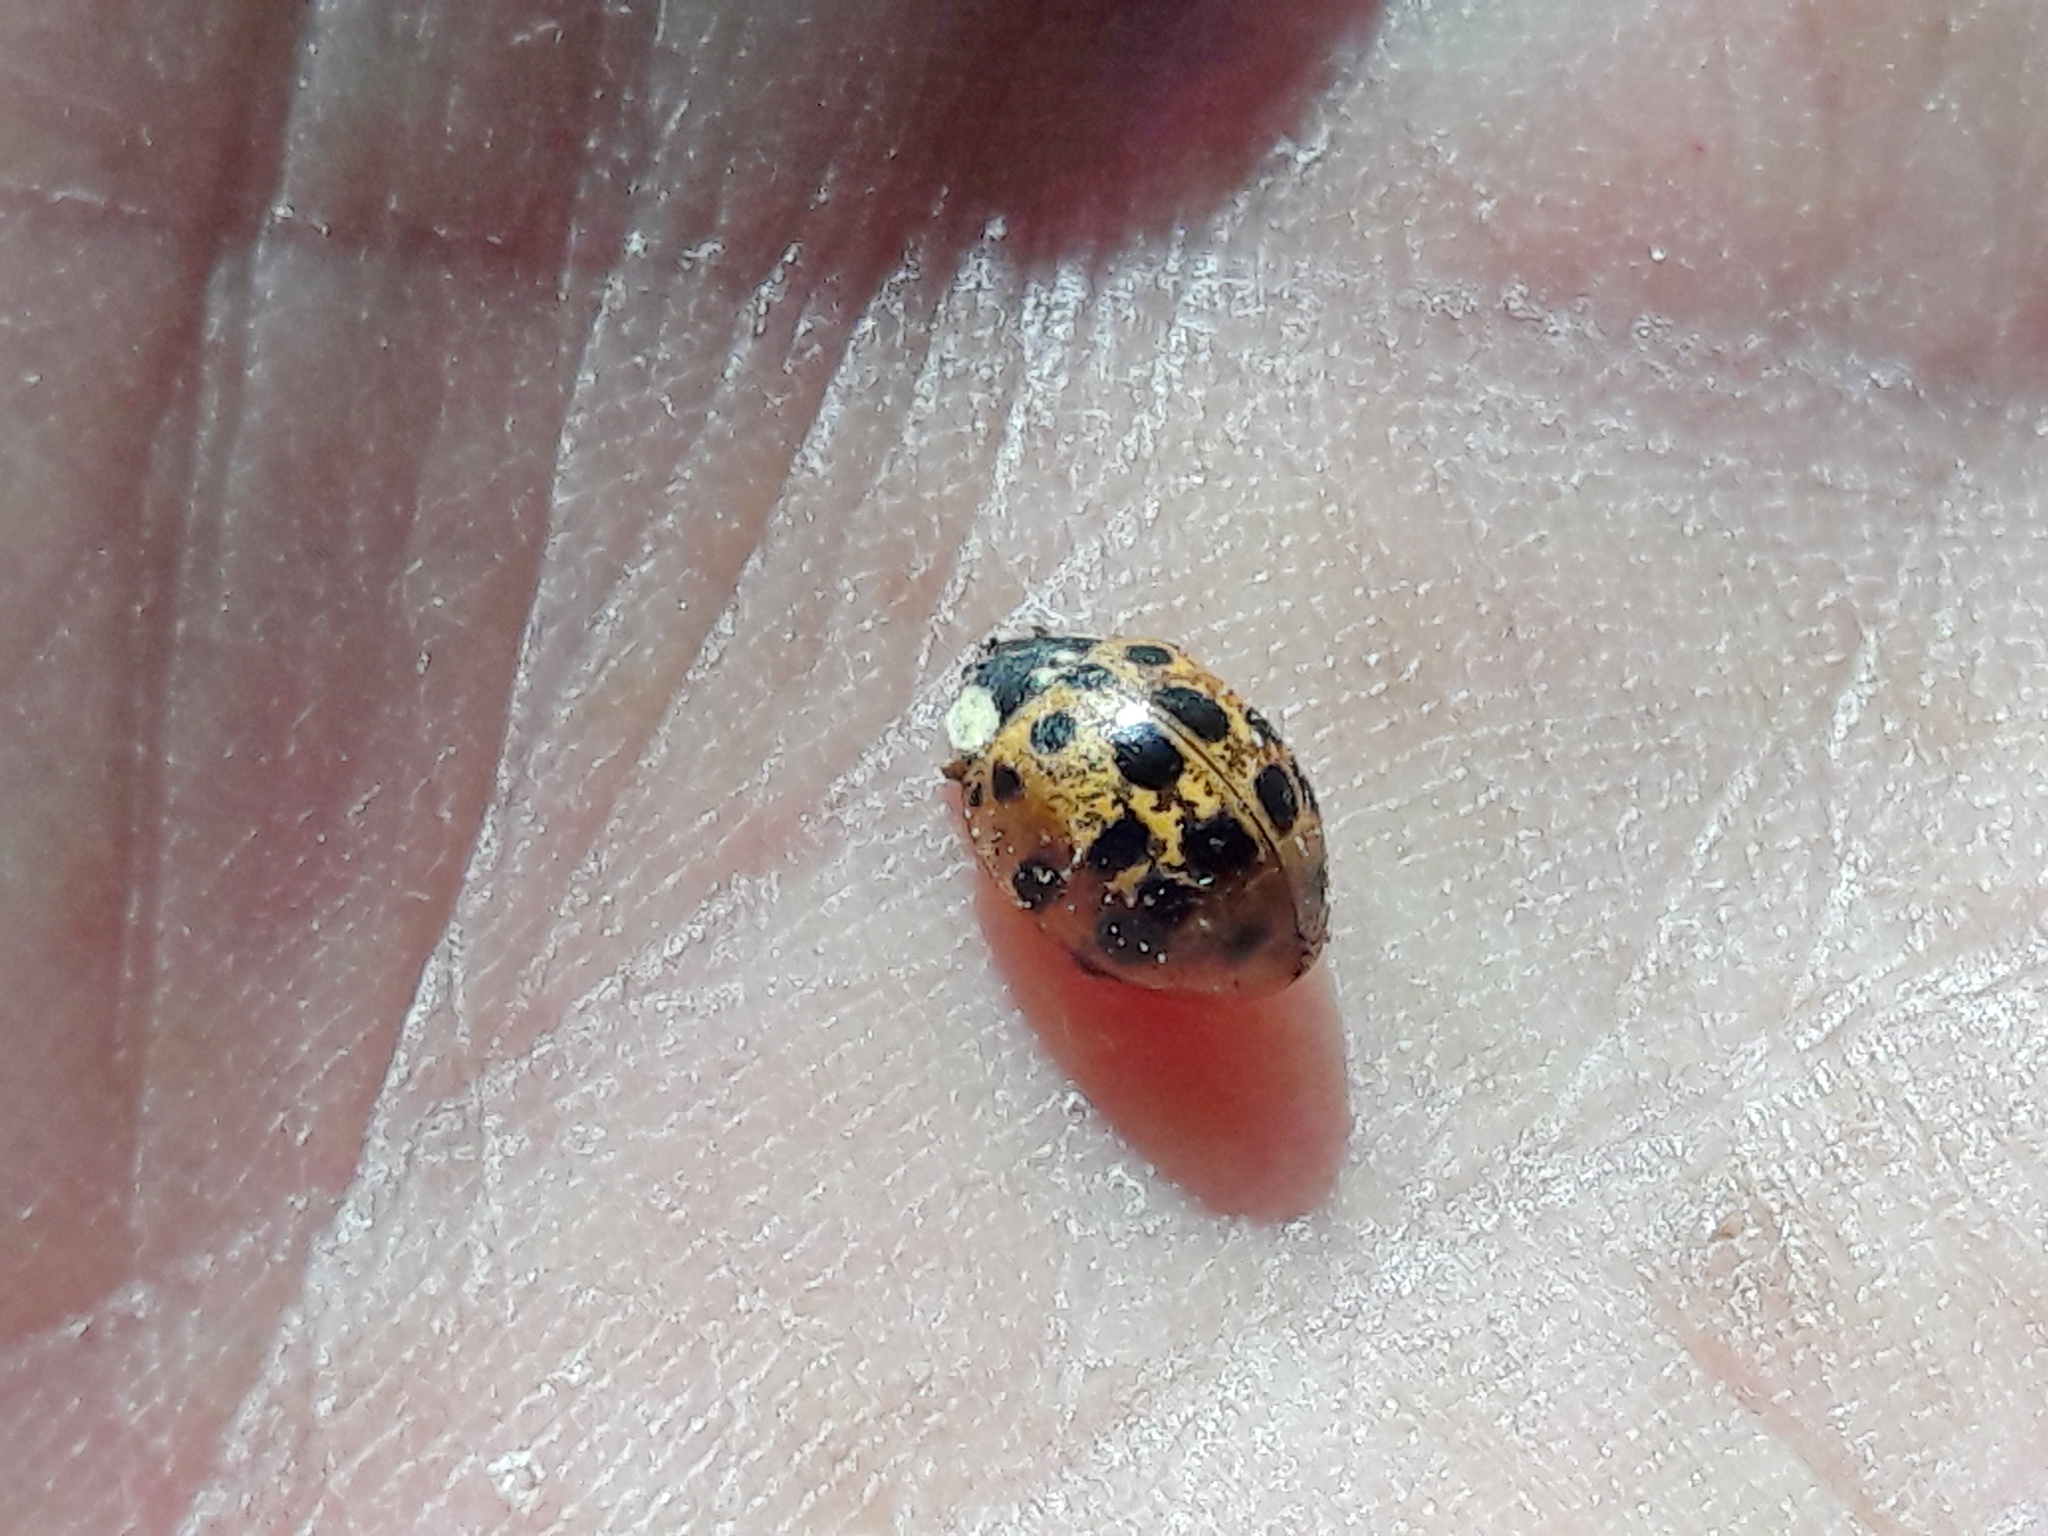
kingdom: Animalia
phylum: Arthropoda
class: Insecta
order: Coleoptera
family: Coccinellidae
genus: Harmonia
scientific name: Harmonia axyridis
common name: Harlequin ladybird
